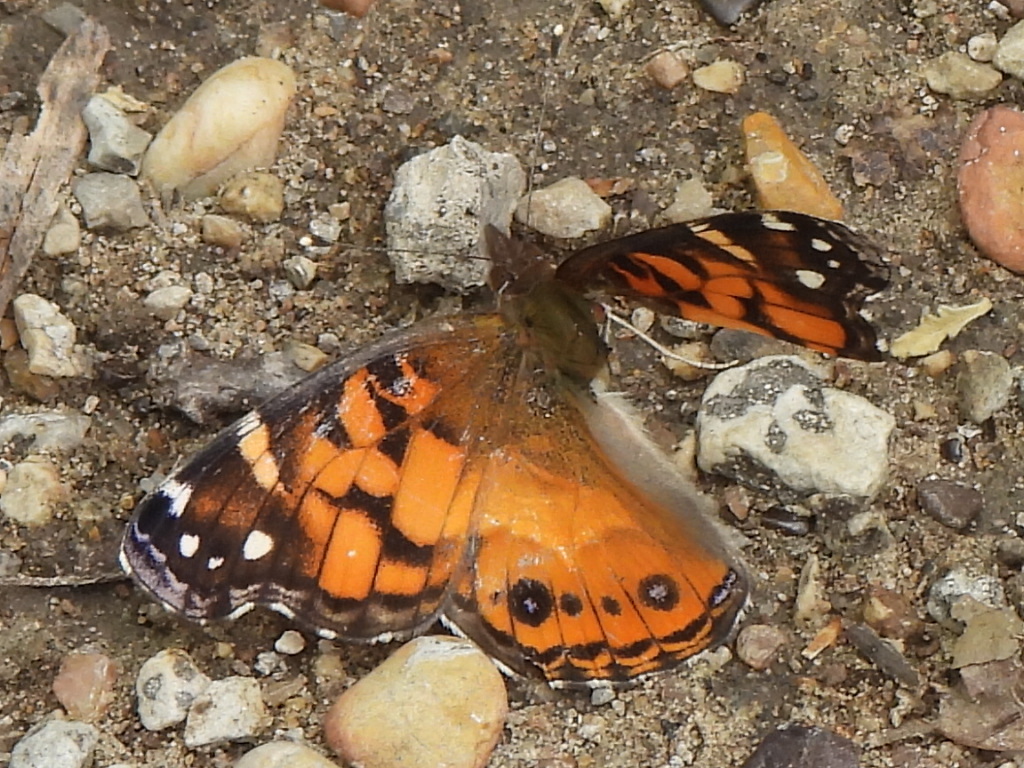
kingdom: Animalia
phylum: Arthropoda
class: Insecta
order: Lepidoptera
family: Nymphalidae
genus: Vanessa
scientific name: Vanessa virginiensis
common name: American lady
